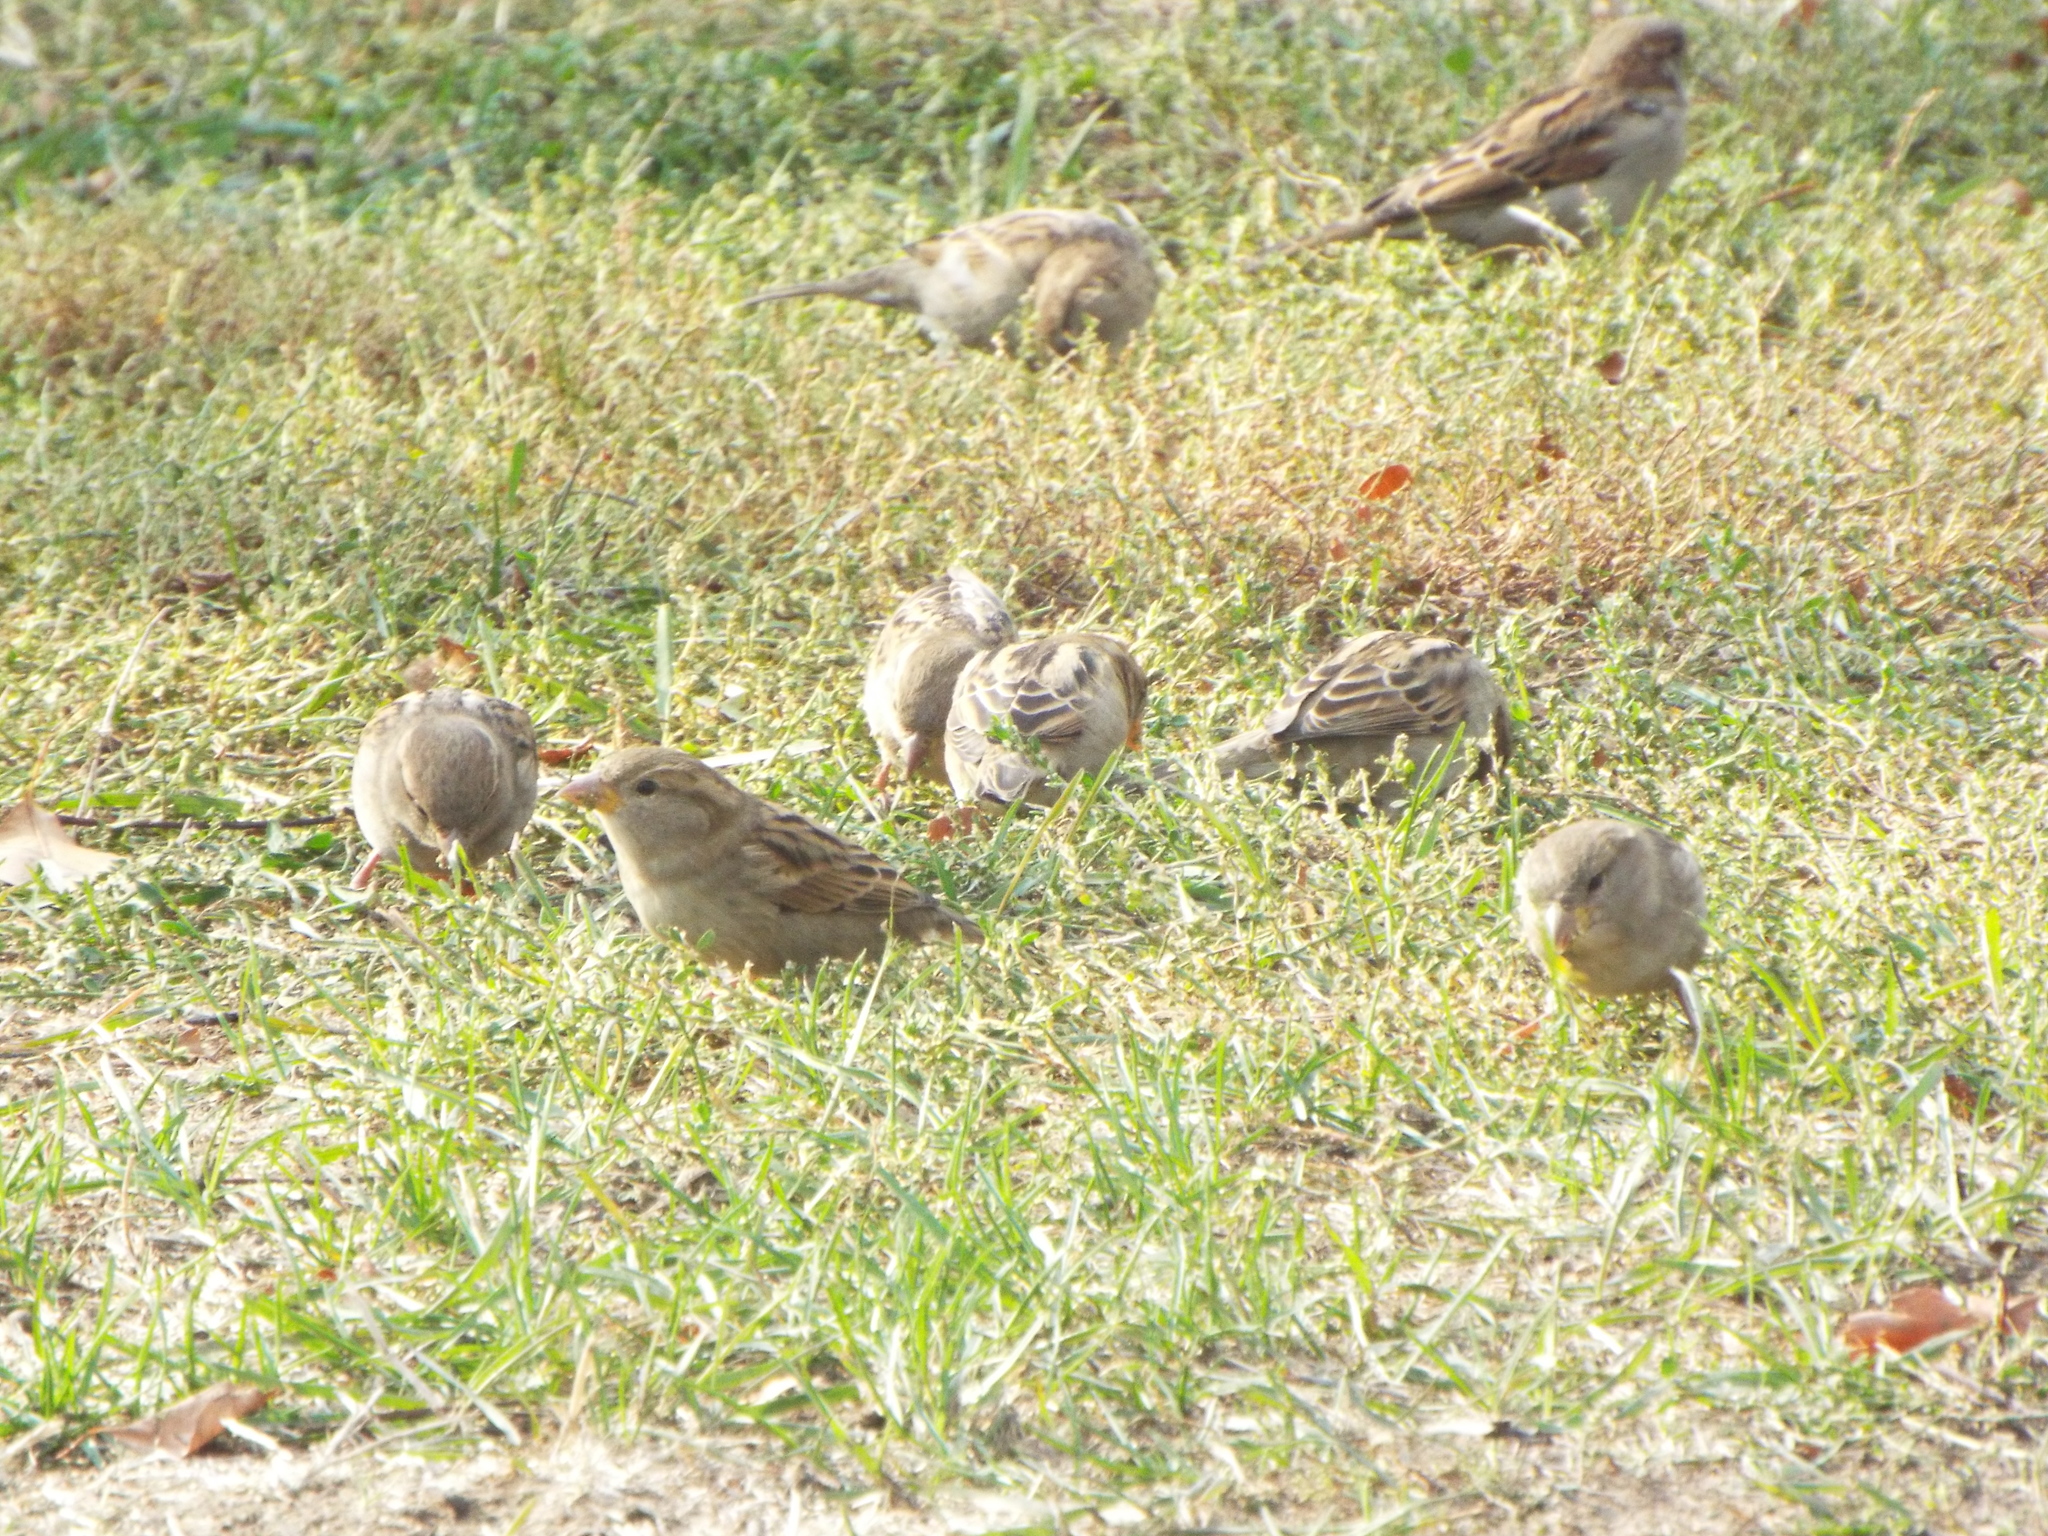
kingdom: Animalia
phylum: Chordata
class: Aves
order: Passeriformes
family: Passeridae
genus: Passer
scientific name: Passer domesticus
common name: House sparrow
